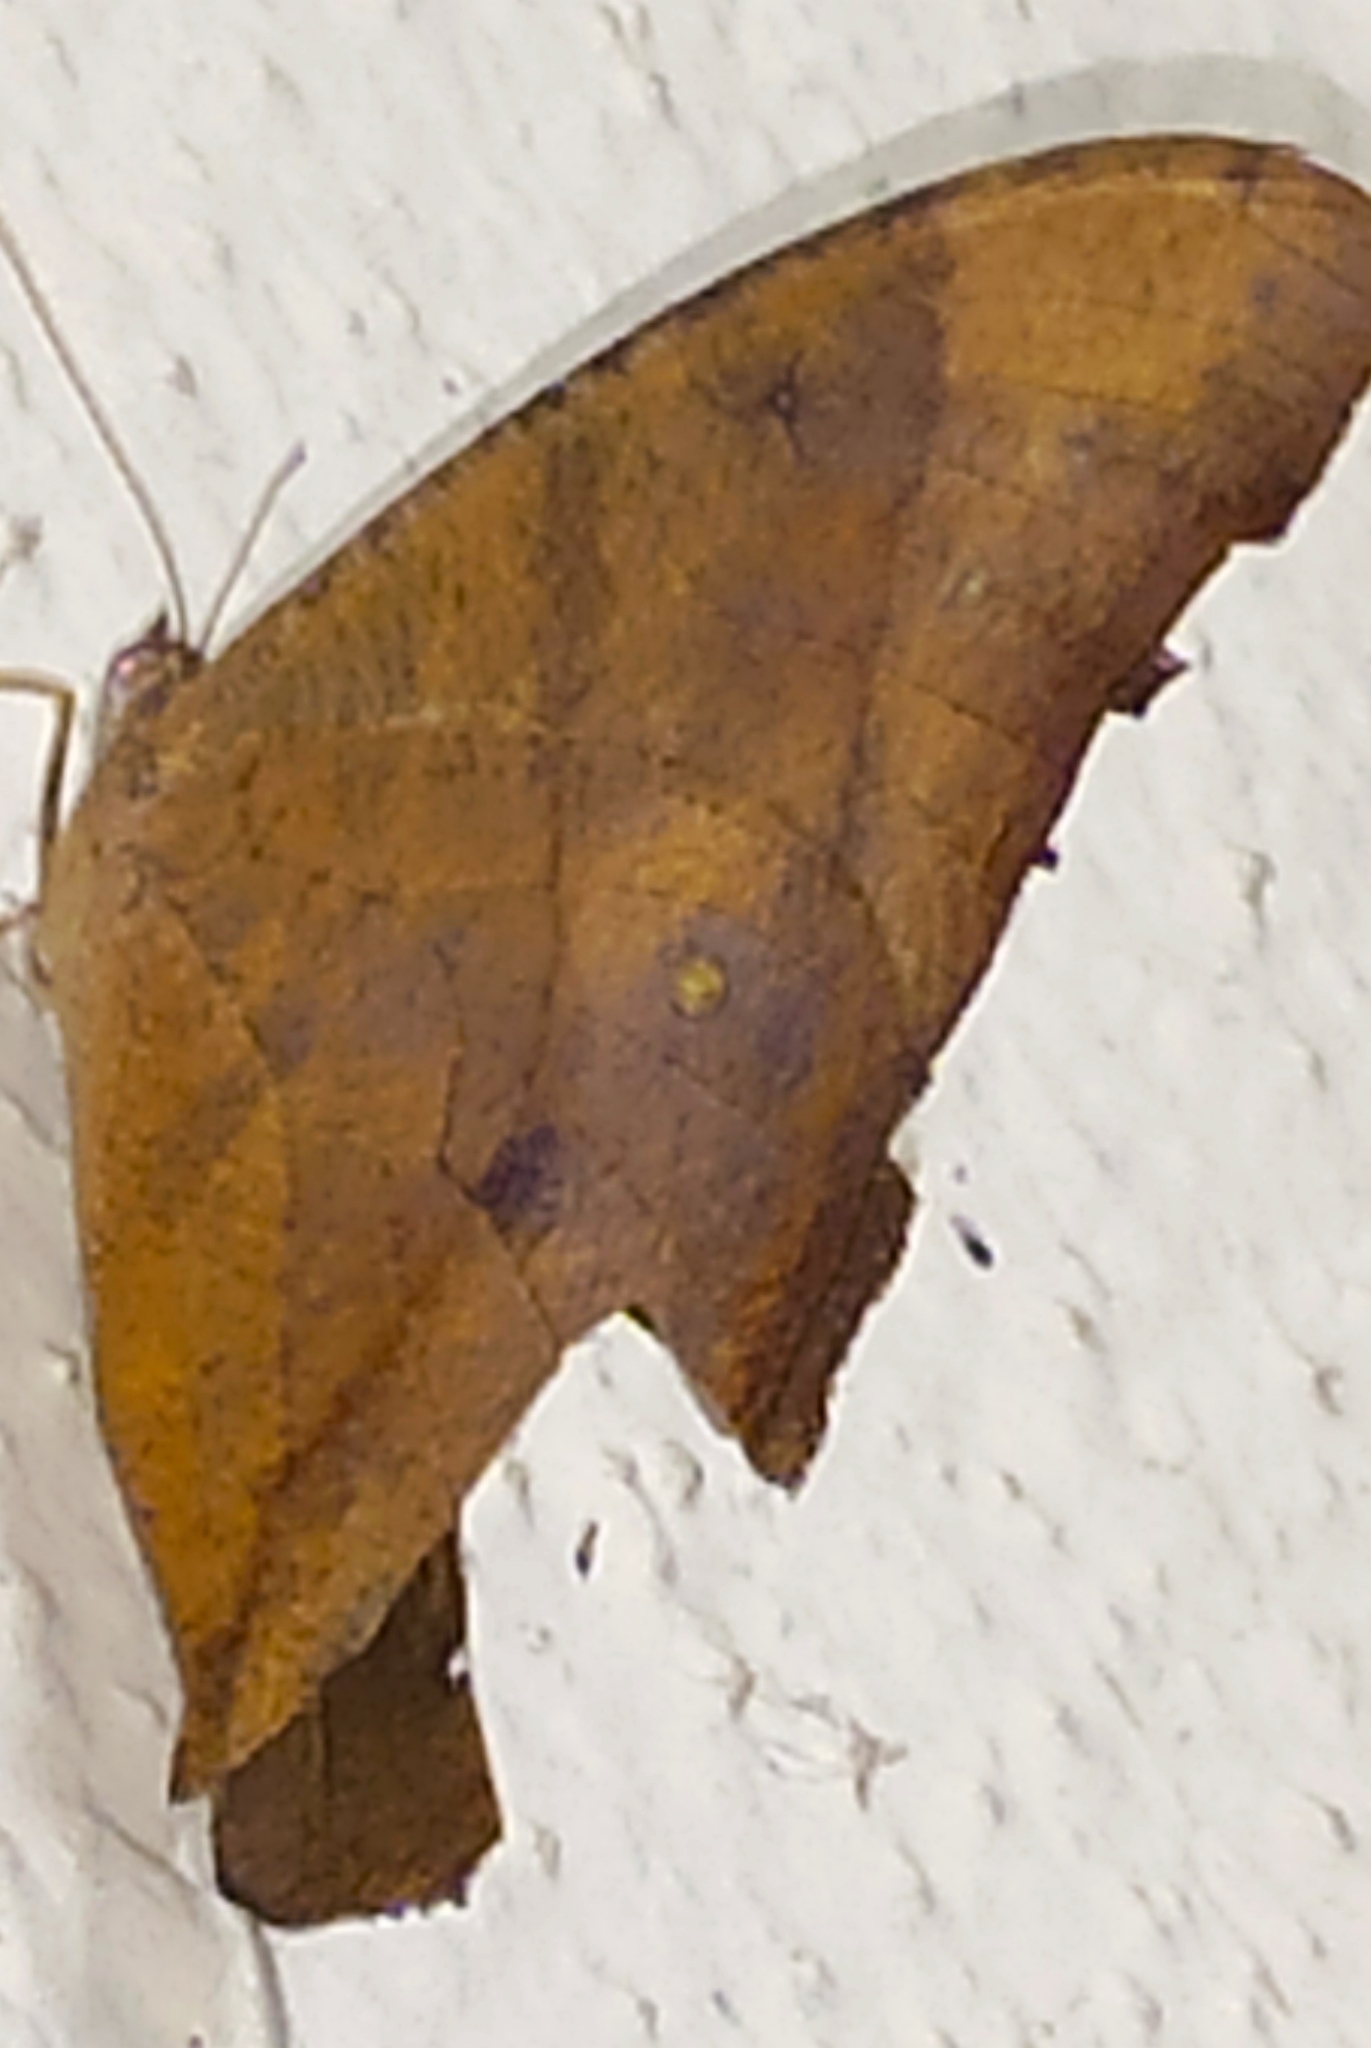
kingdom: Animalia
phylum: Arthropoda
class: Insecta
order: Lepidoptera
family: Nymphalidae
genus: Melanitis
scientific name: Melanitis leda
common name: Twilight brown
